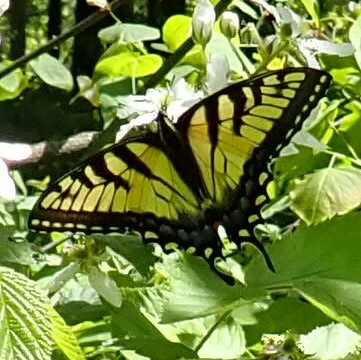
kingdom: Animalia
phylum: Arthropoda
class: Insecta
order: Lepidoptera
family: Papilionidae
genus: Papilio
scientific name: Papilio glaucus
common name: Tiger swallowtail
